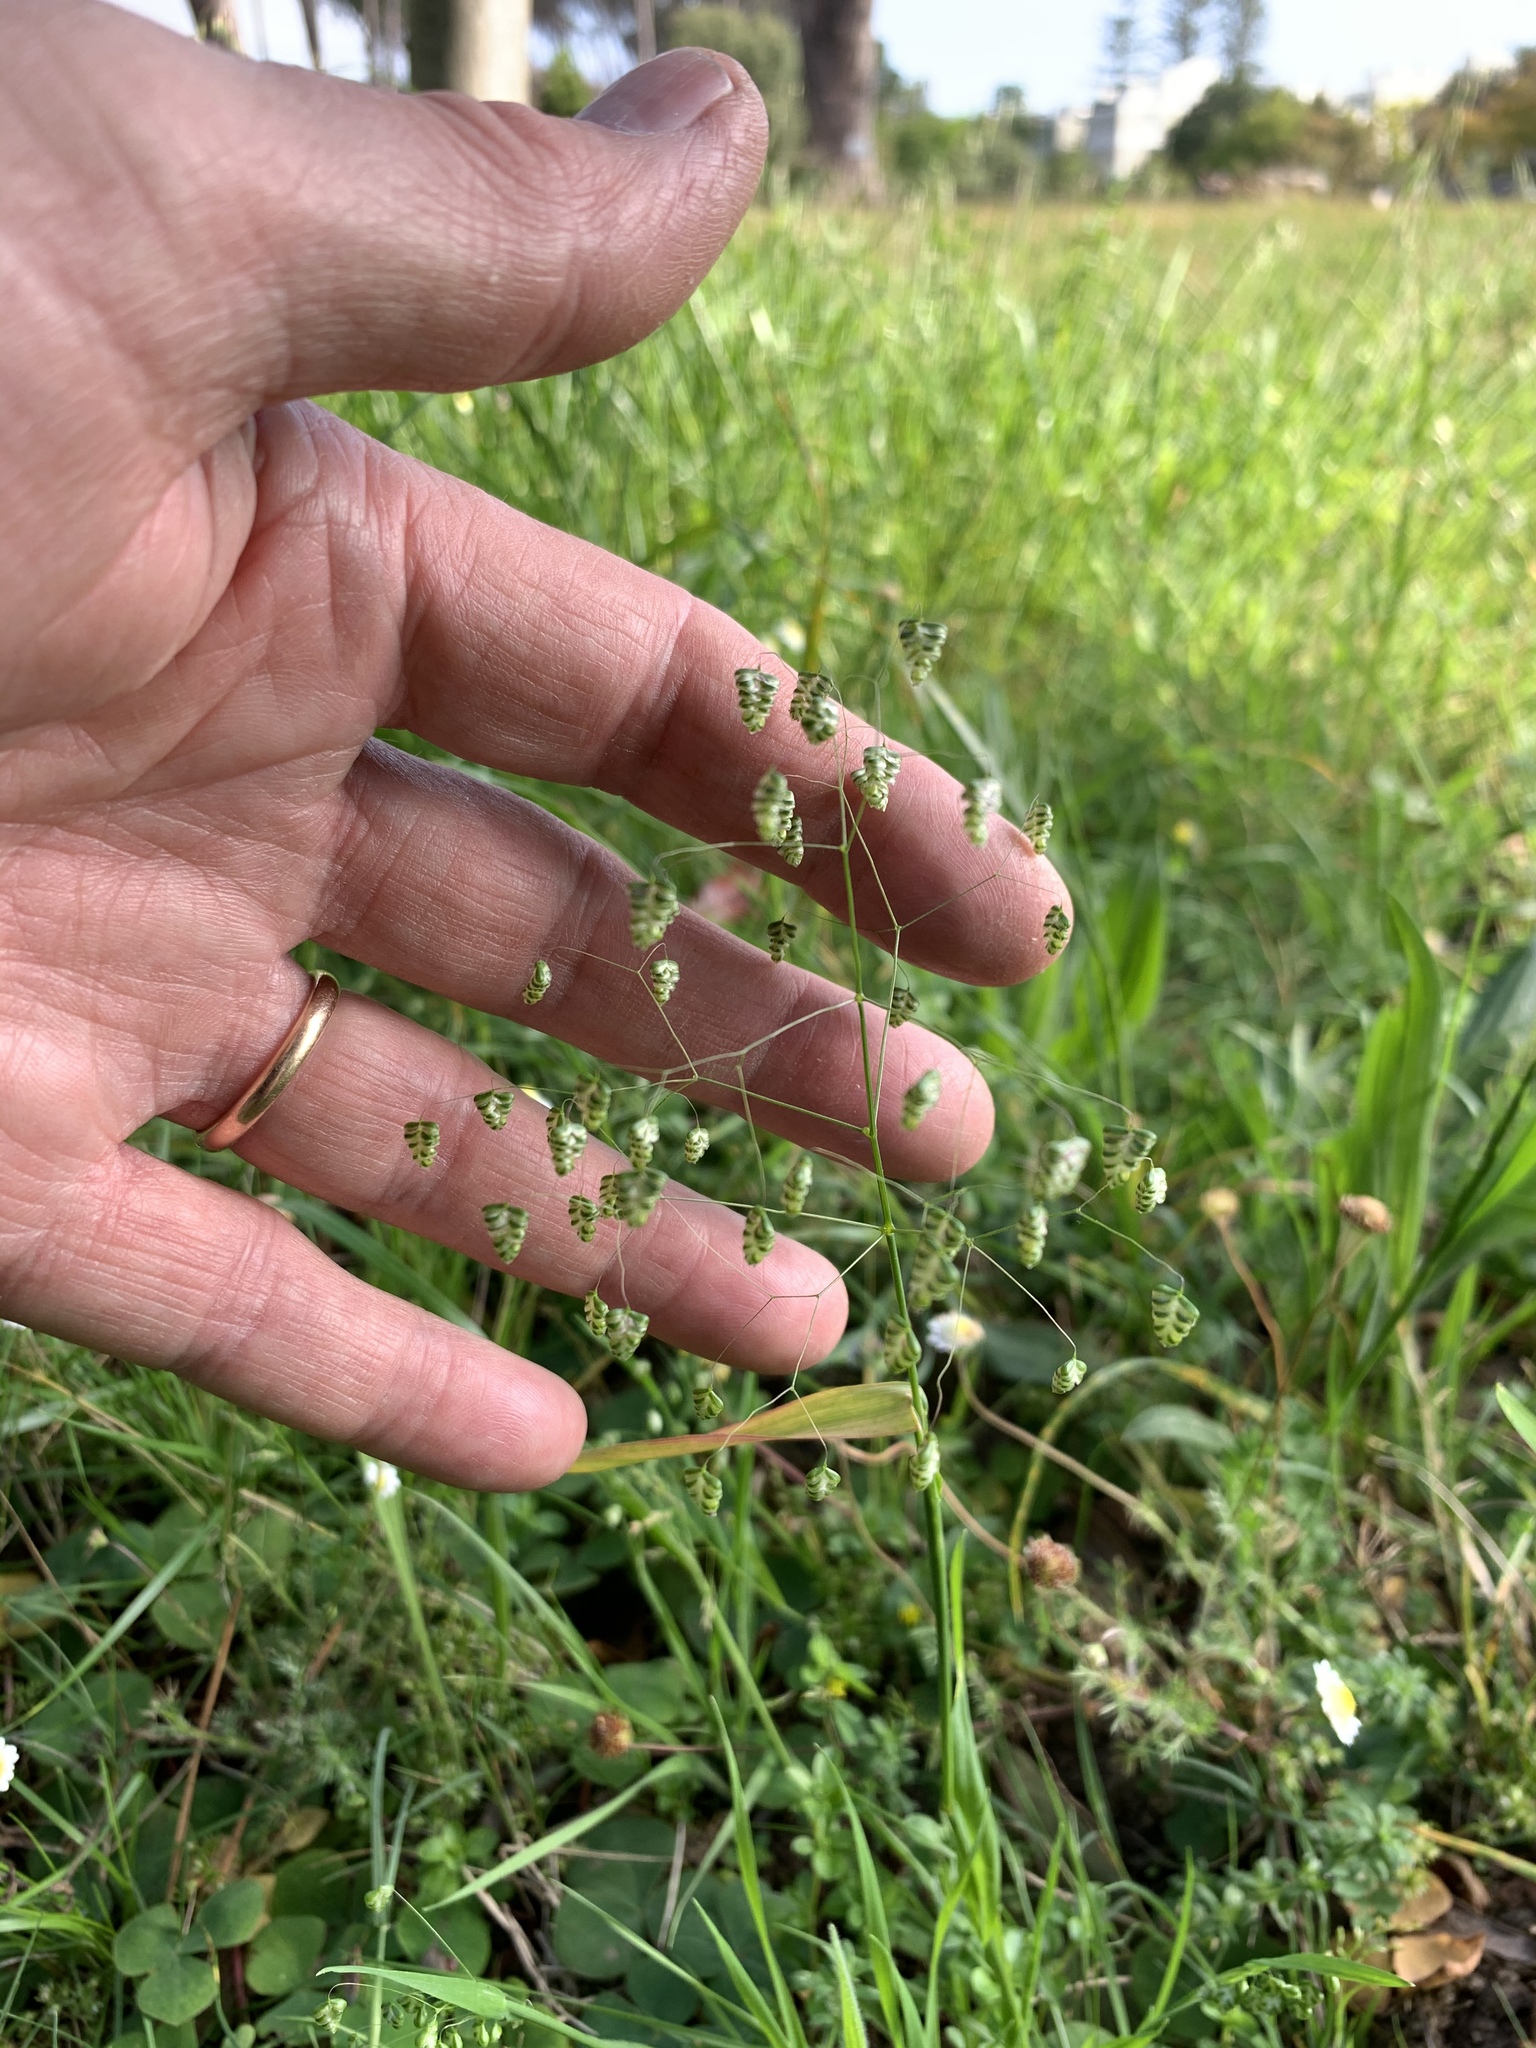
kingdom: Plantae
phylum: Tracheophyta
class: Liliopsida
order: Poales
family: Poaceae
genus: Briza
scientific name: Briza minor
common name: Lesser quaking-grass
